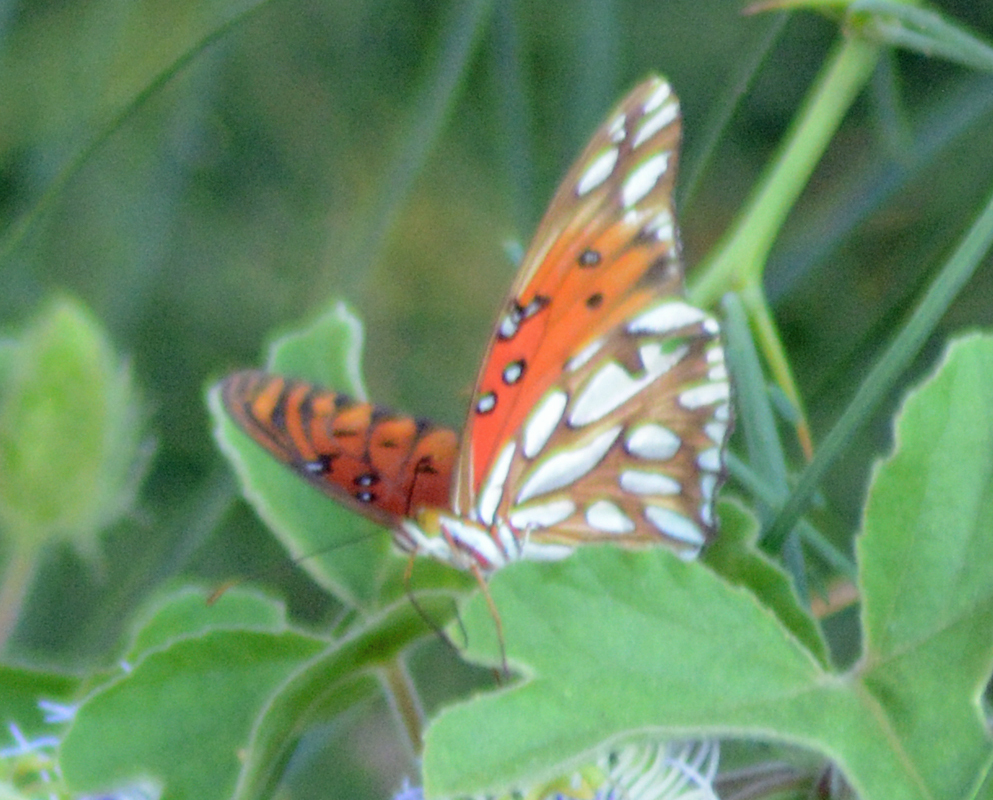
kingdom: Animalia
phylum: Arthropoda
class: Insecta
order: Lepidoptera
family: Nymphalidae
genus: Dione
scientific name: Dione vanillae
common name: Gulf fritillary
